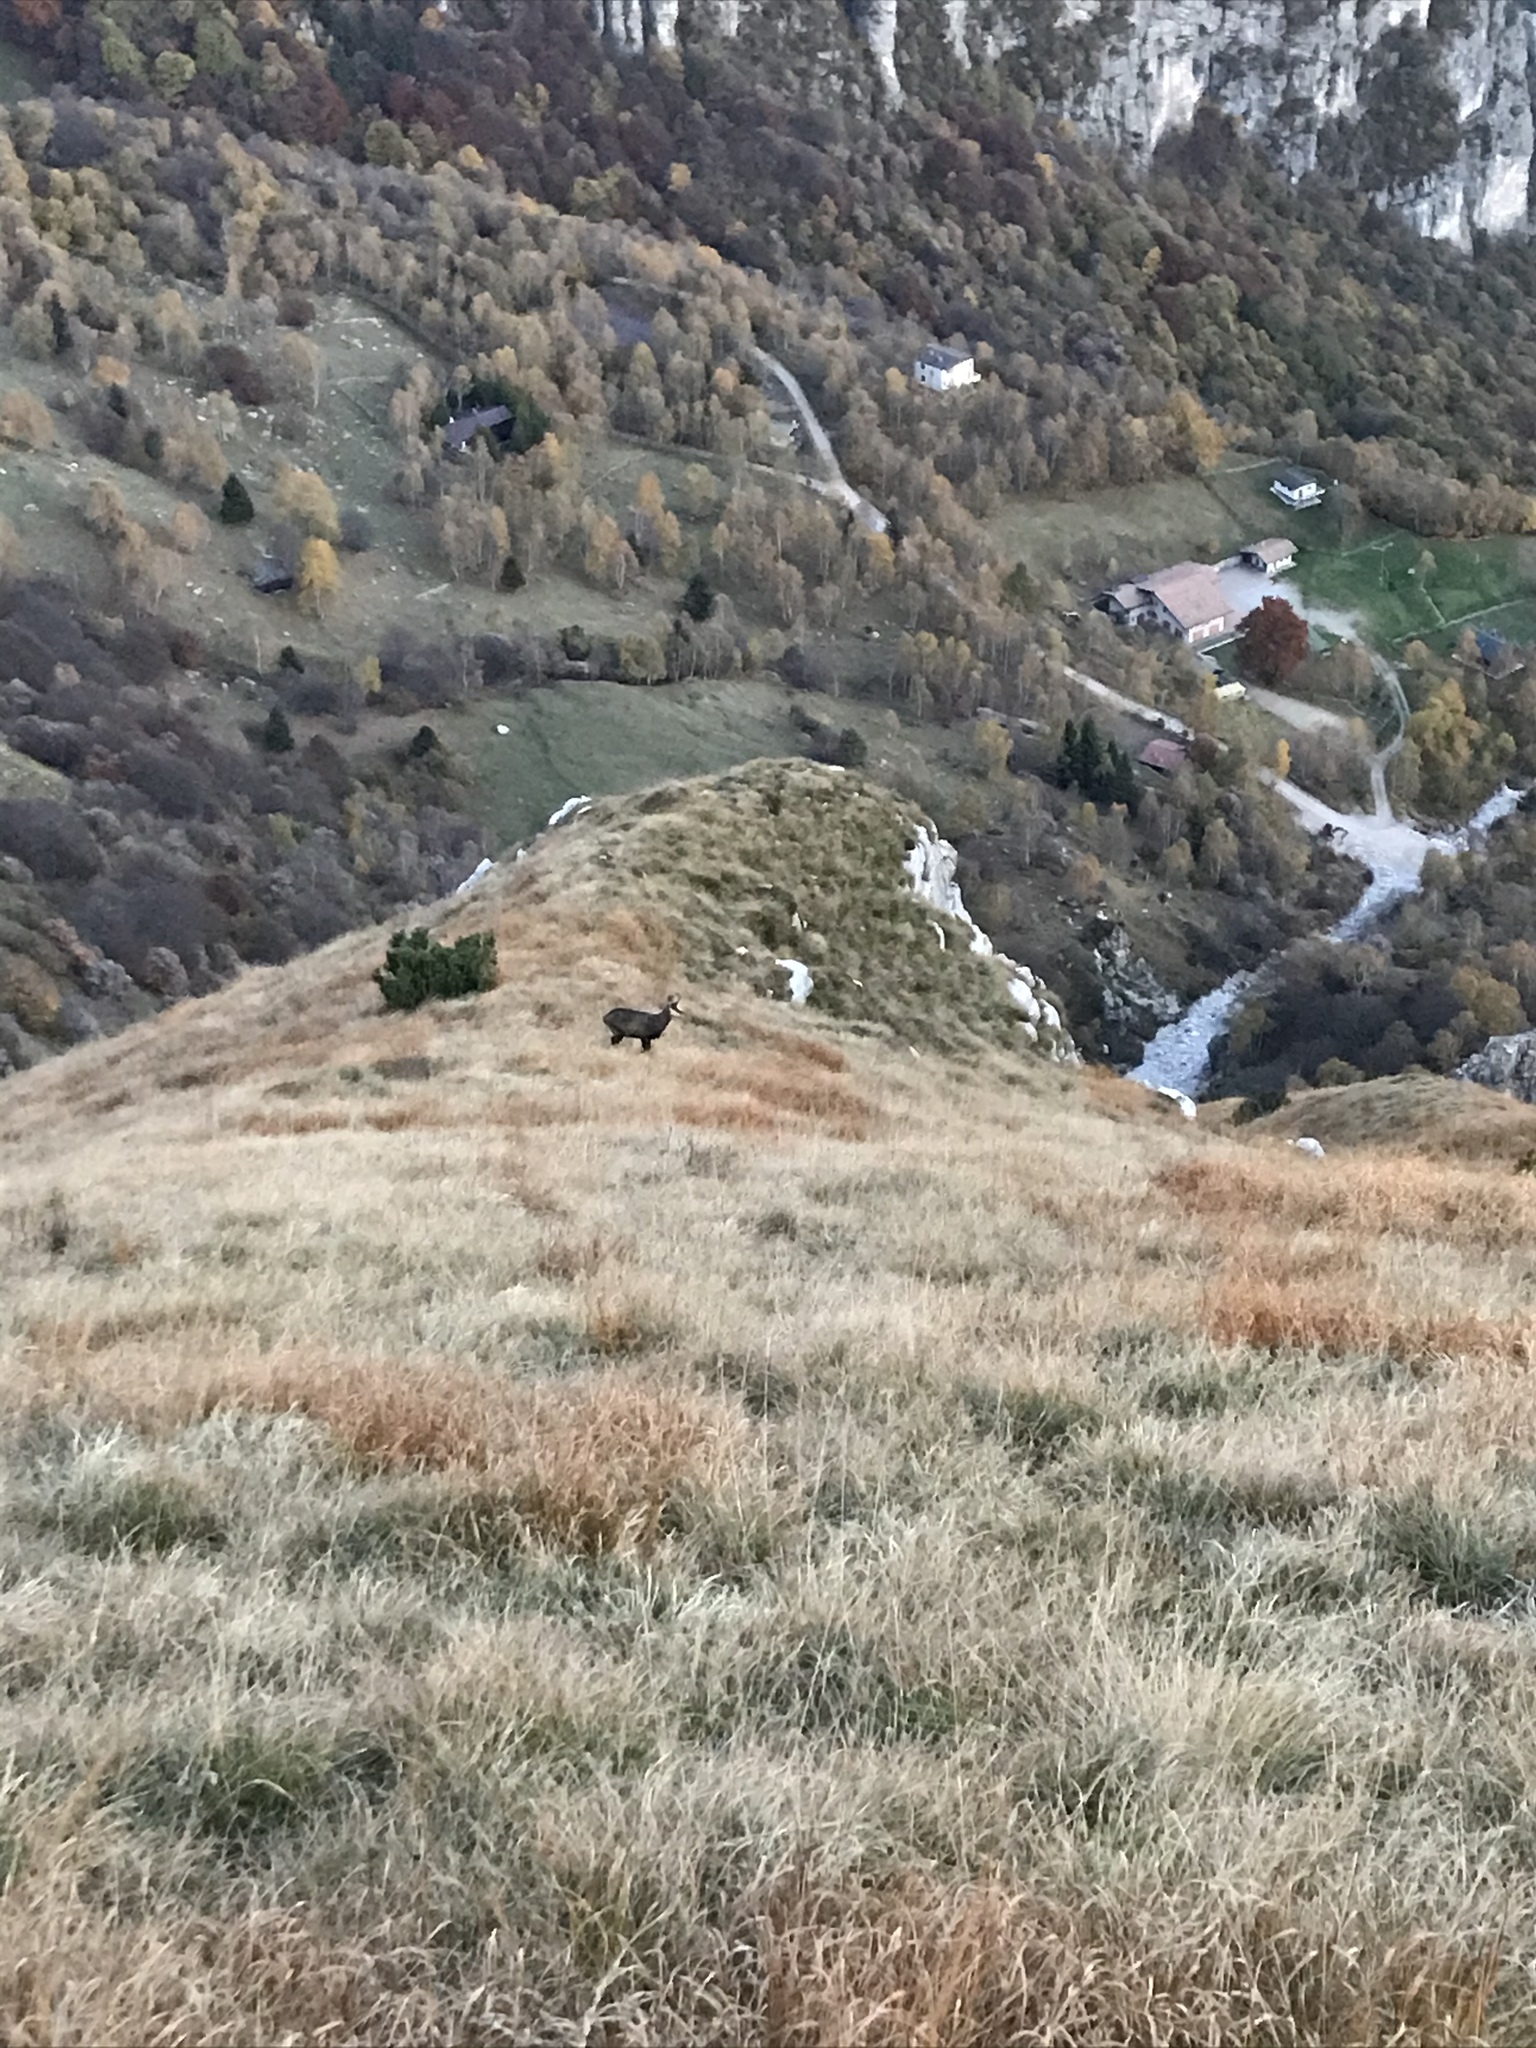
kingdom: Animalia
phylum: Chordata
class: Mammalia
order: Artiodactyla
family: Bovidae
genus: Rupicapra
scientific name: Rupicapra rupicapra
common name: Chamois
